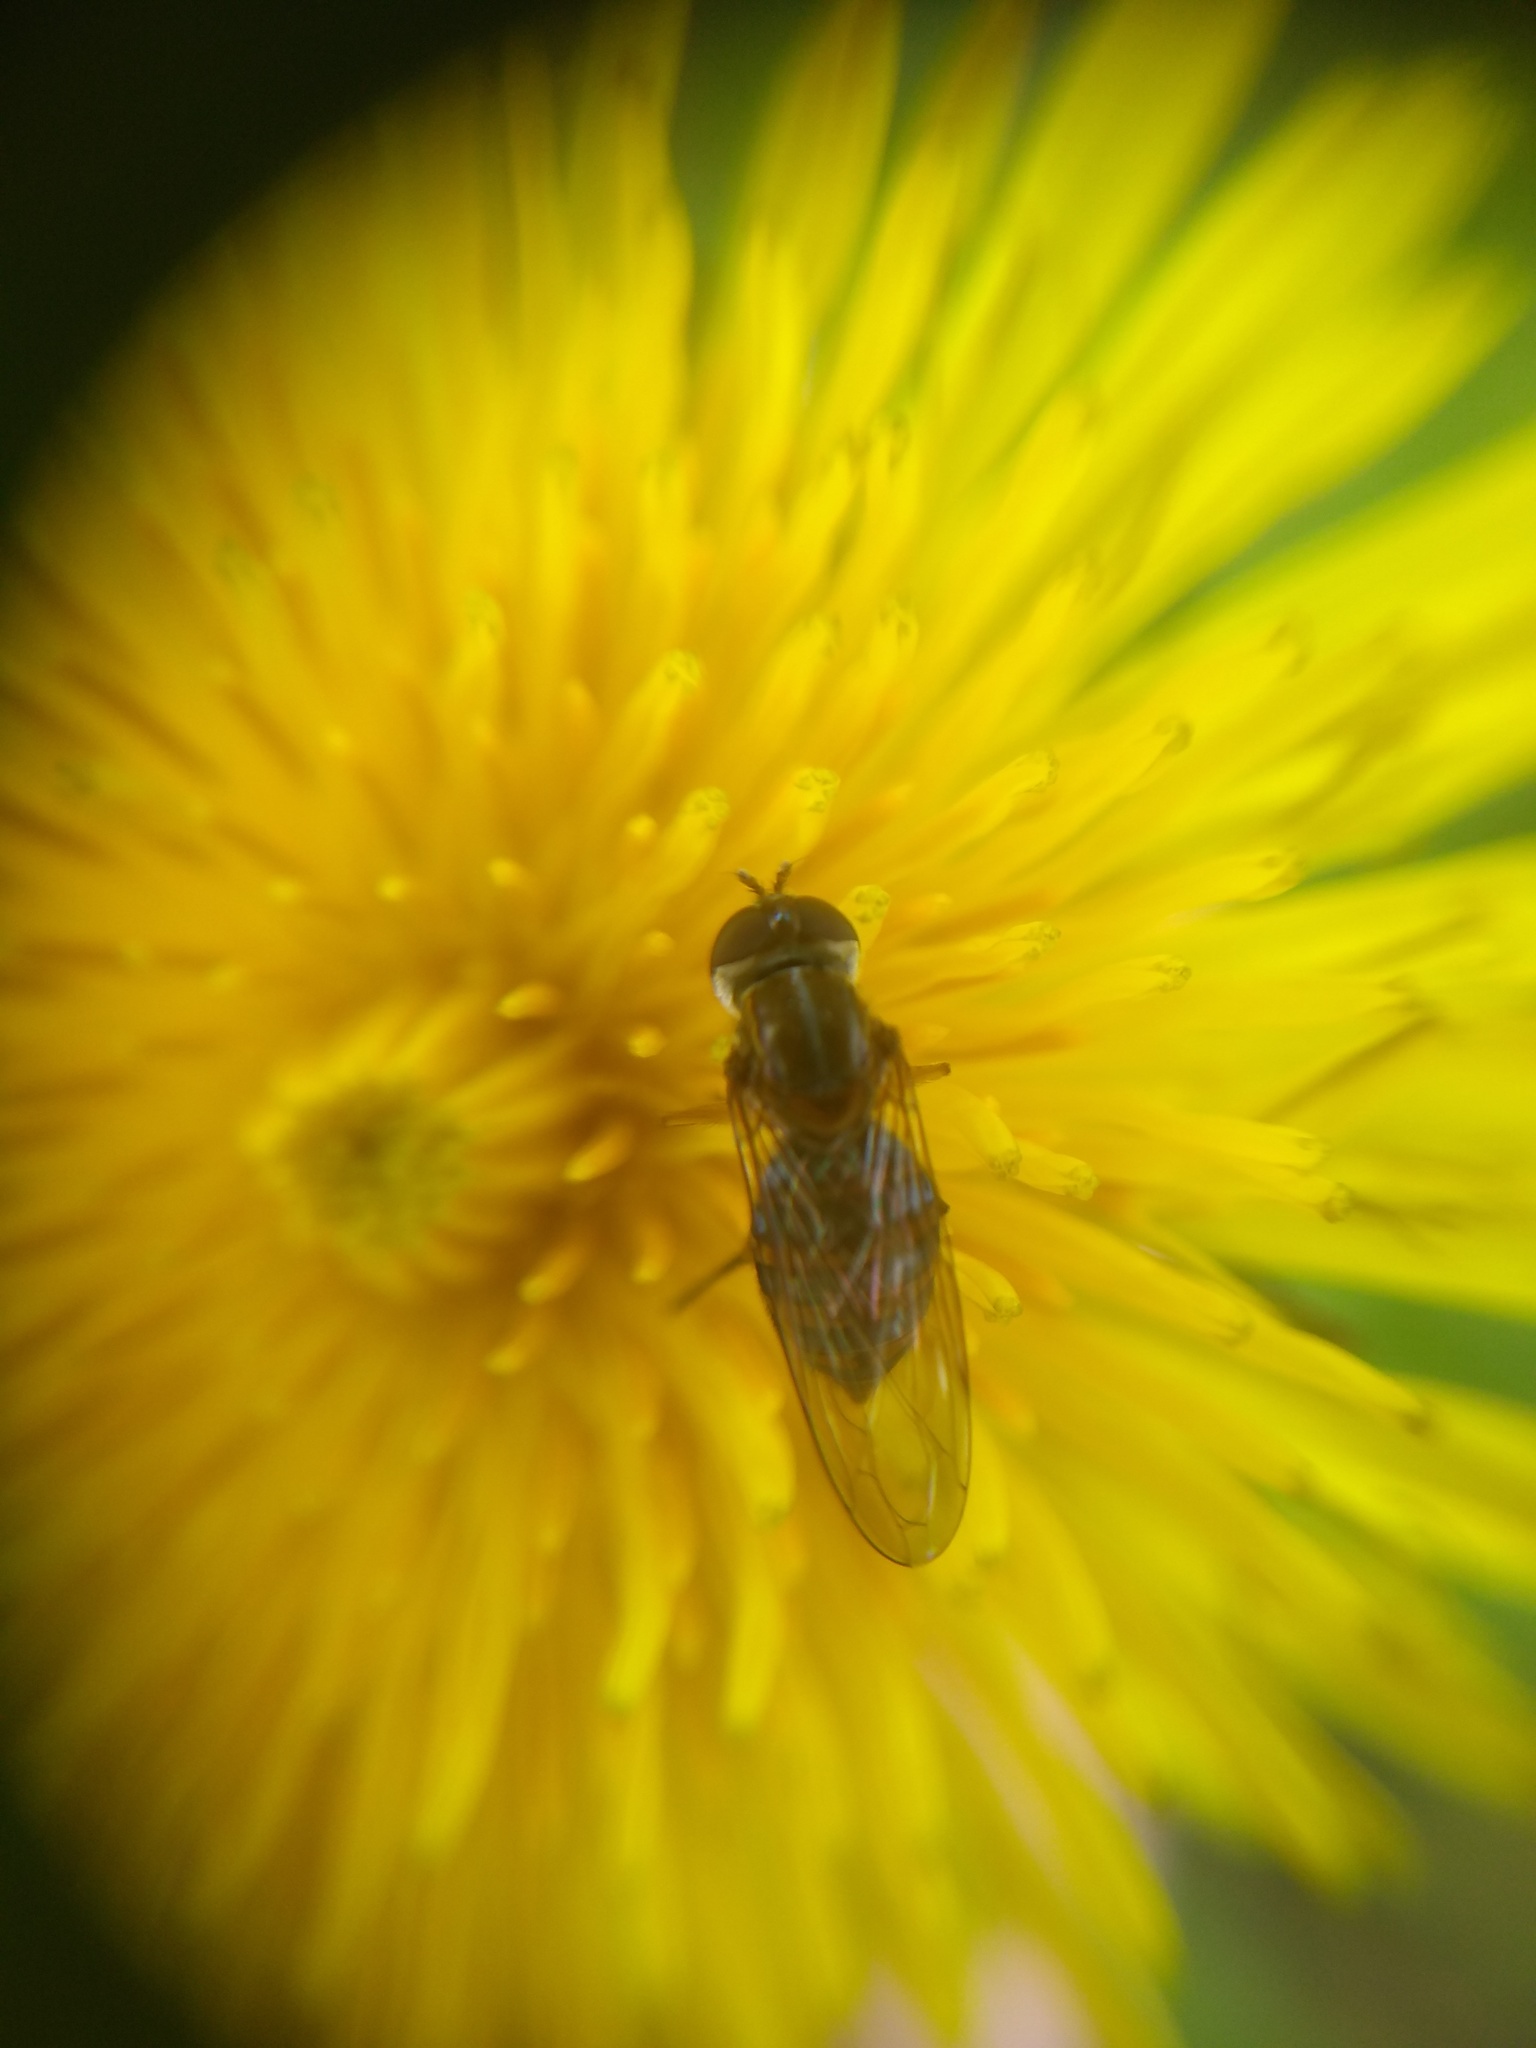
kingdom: Animalia
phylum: Arthropoda
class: Insecta
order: Diptera
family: Syrphidae
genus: Toxomerus
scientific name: Toxomerus
